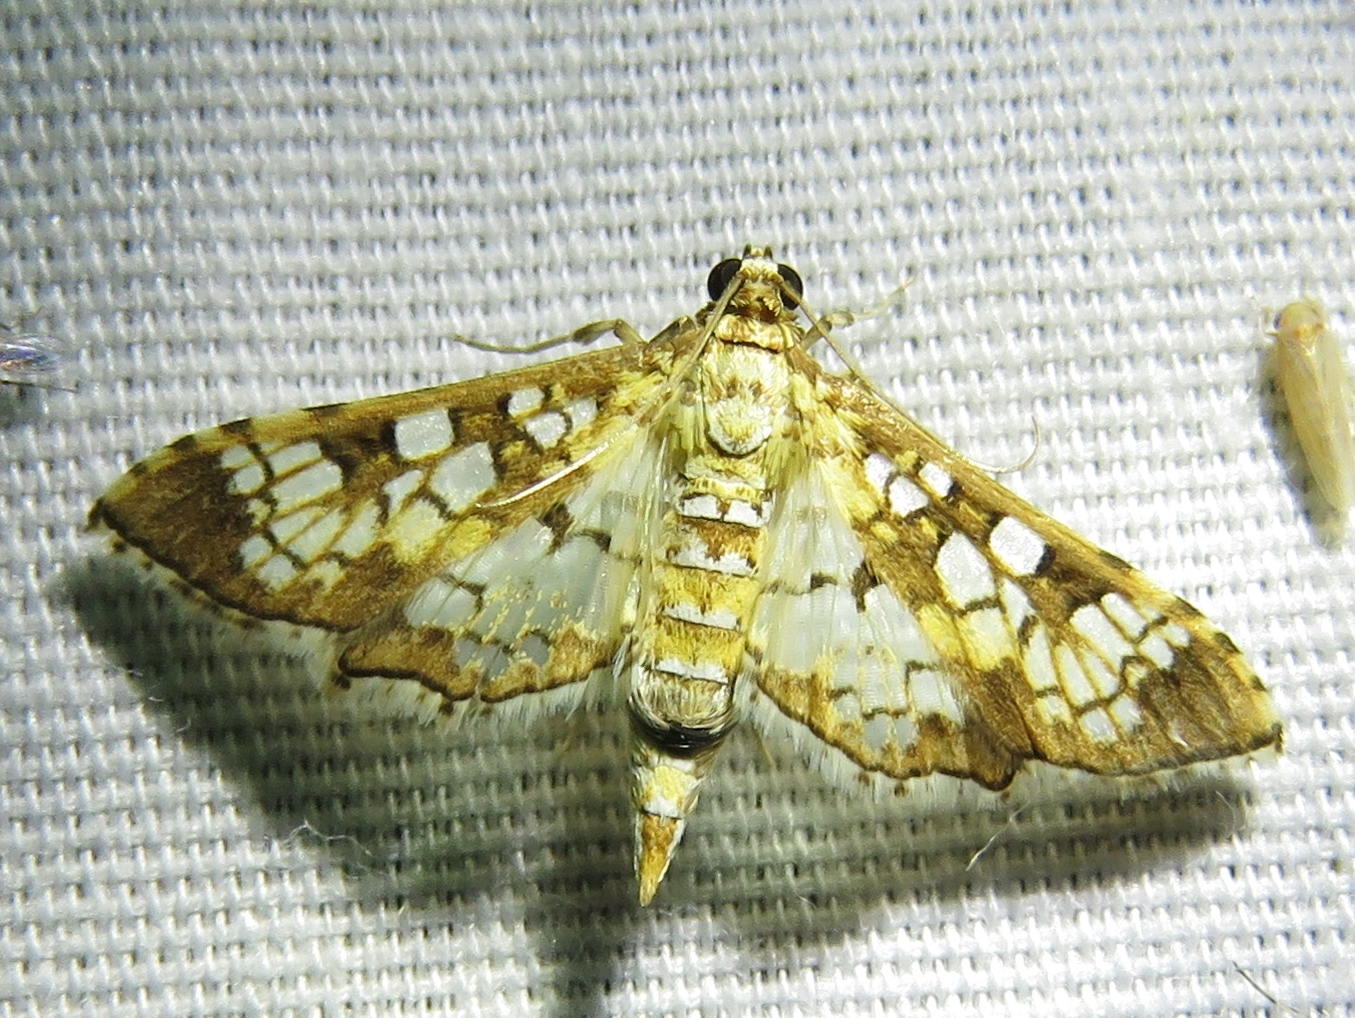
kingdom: Animalia
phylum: Arthropoda
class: Insecta
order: Lepidoptera
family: Crambidae
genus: Samea
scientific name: Samea ecclesialis
